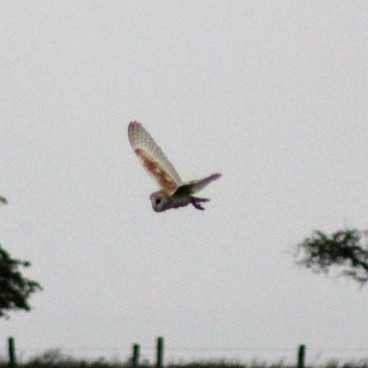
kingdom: Animalia
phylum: Chordata
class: Aves
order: Strigiformes
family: Tytonidae
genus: Tyto
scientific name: Tyto alba
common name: Barn owl
